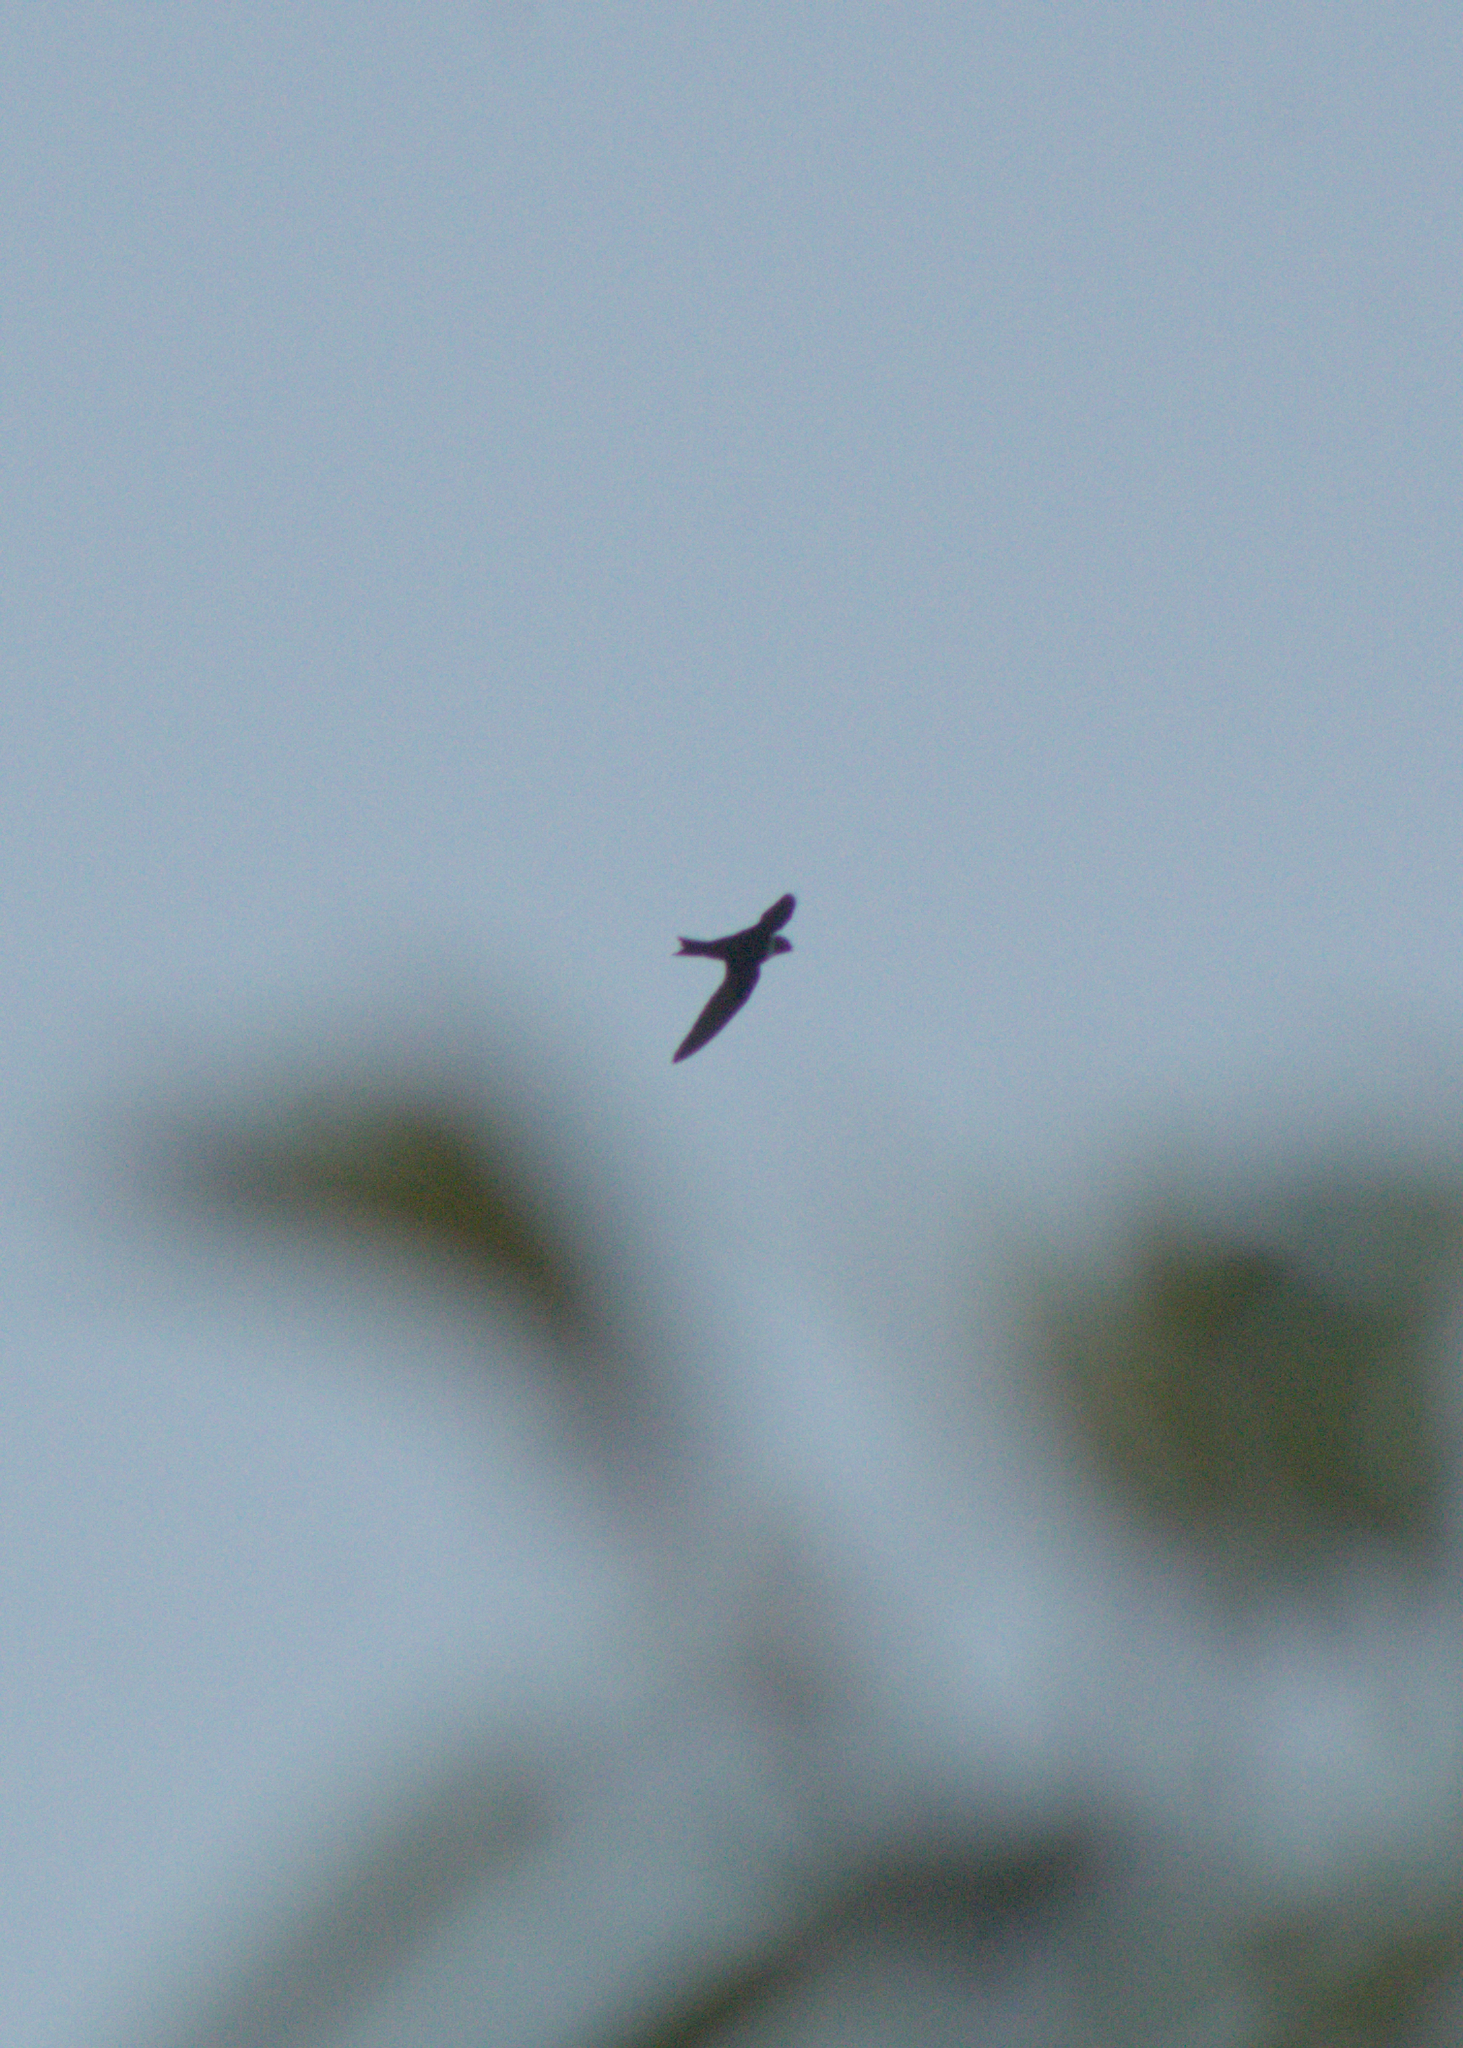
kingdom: Animalia
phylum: Chordata
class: Aves
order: Apodiformes
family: Apodidae
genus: Streptoprocne
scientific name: Streptoprocne zonaris
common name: White-collared swift
